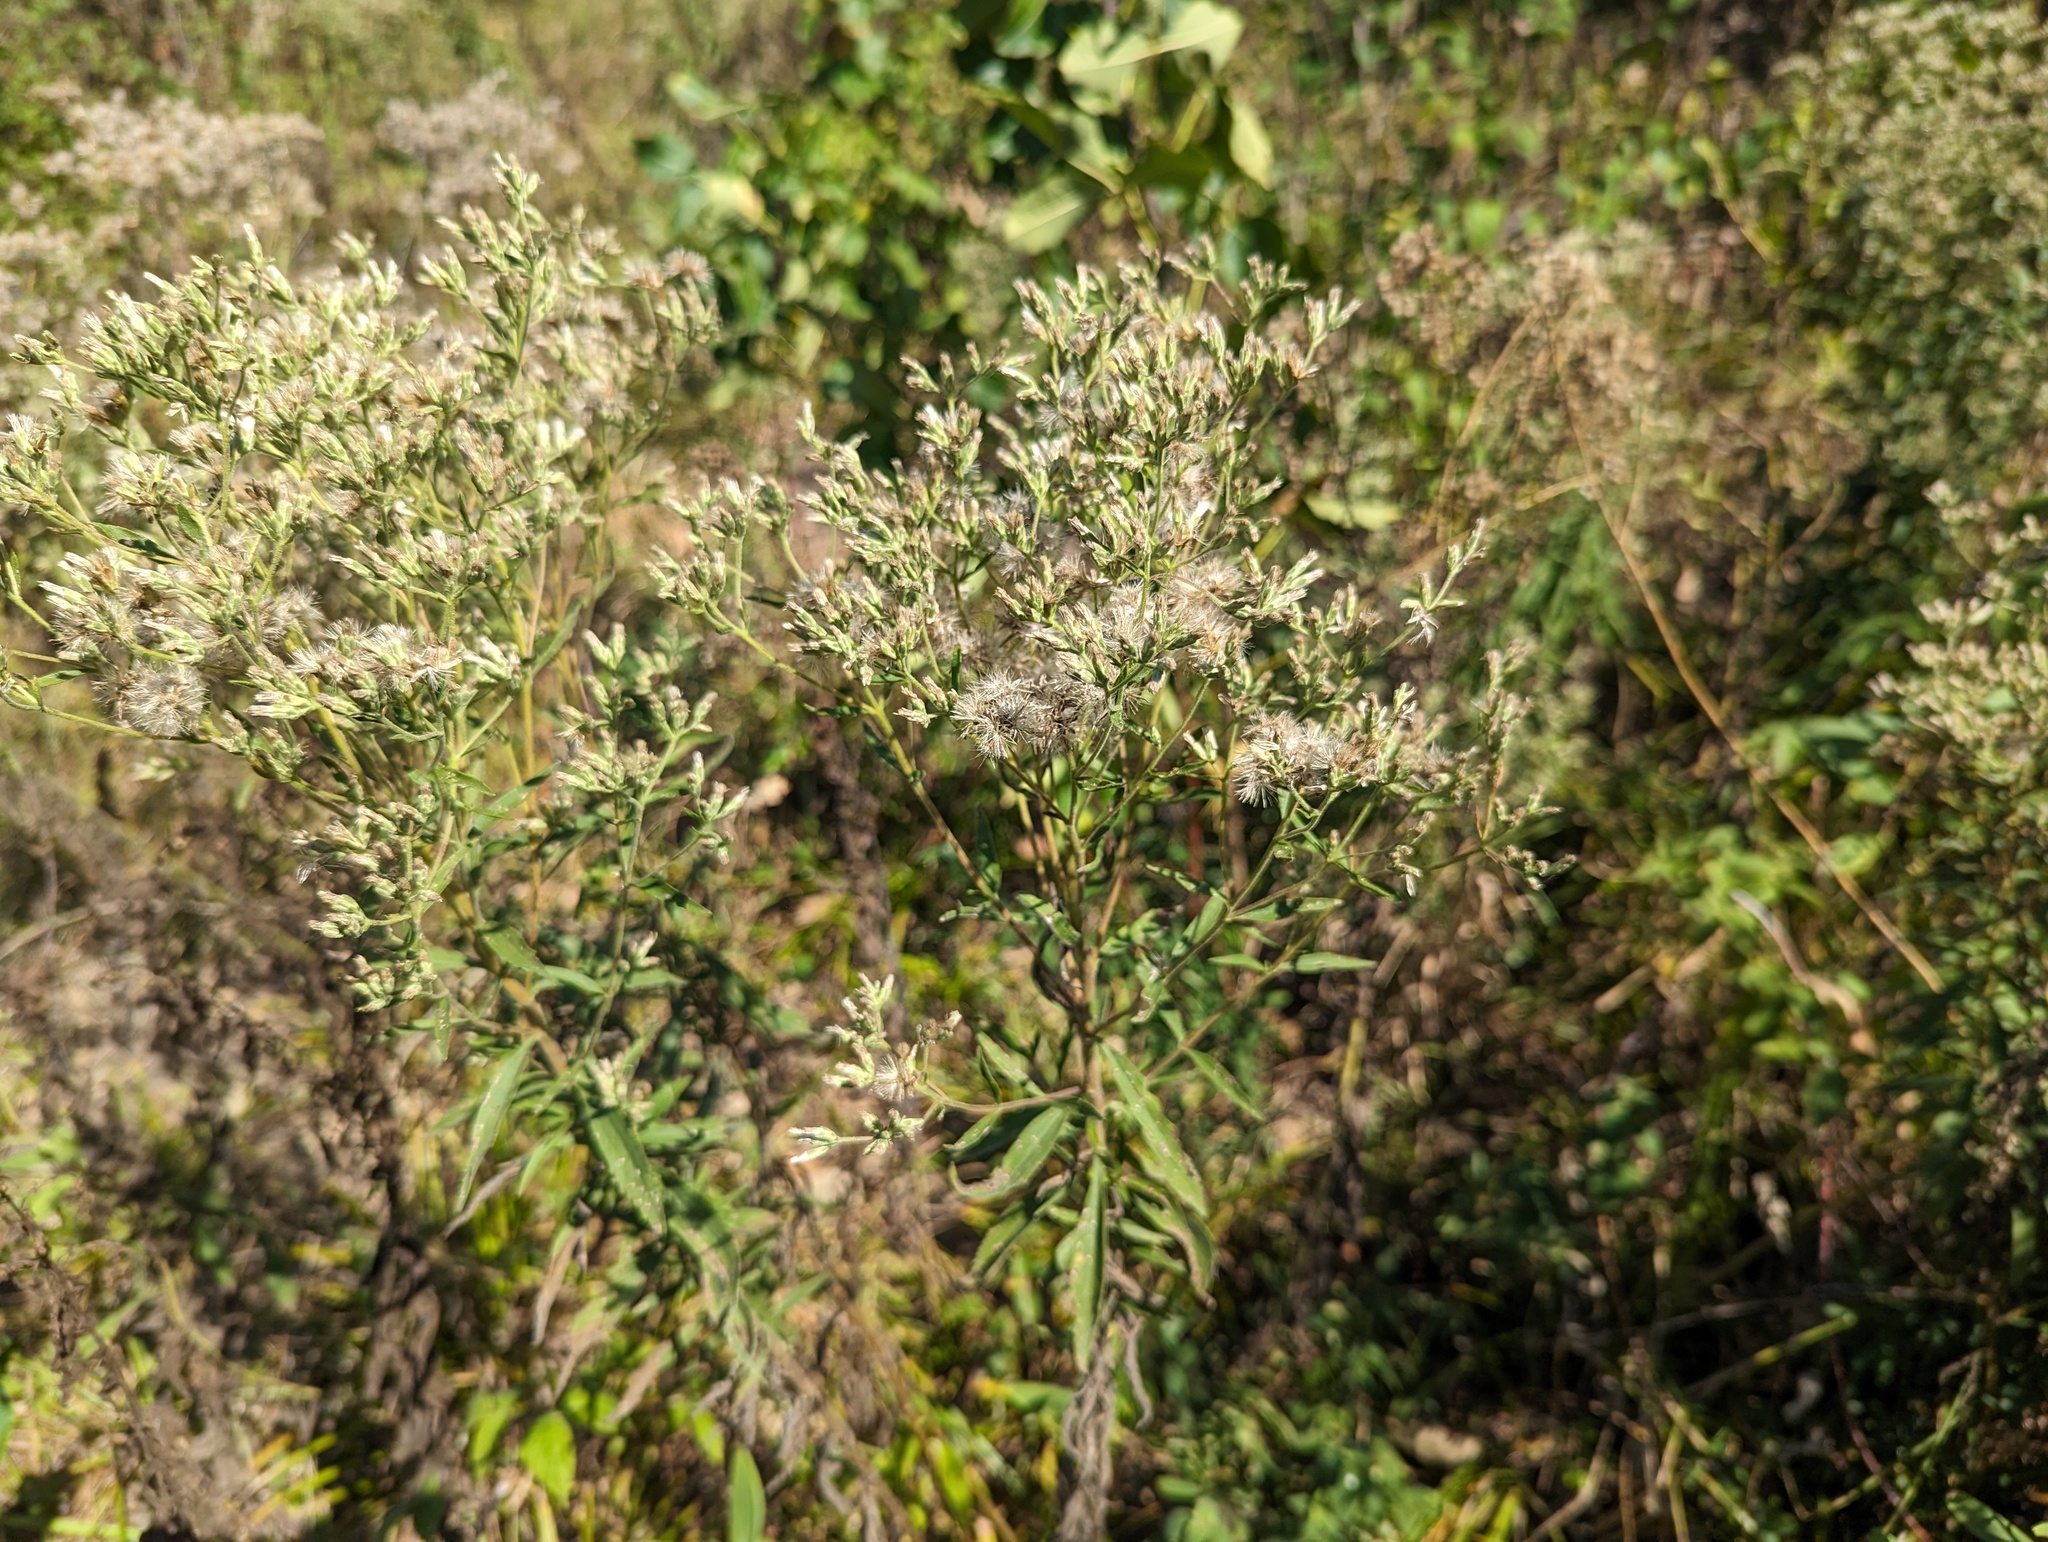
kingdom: Plantae
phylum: Tracheophyta
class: Magnoliopsida
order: Asterales
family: Asteraceae
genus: Eupatorium
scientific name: Eupatorium altissimum
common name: Tall thoroughwort
